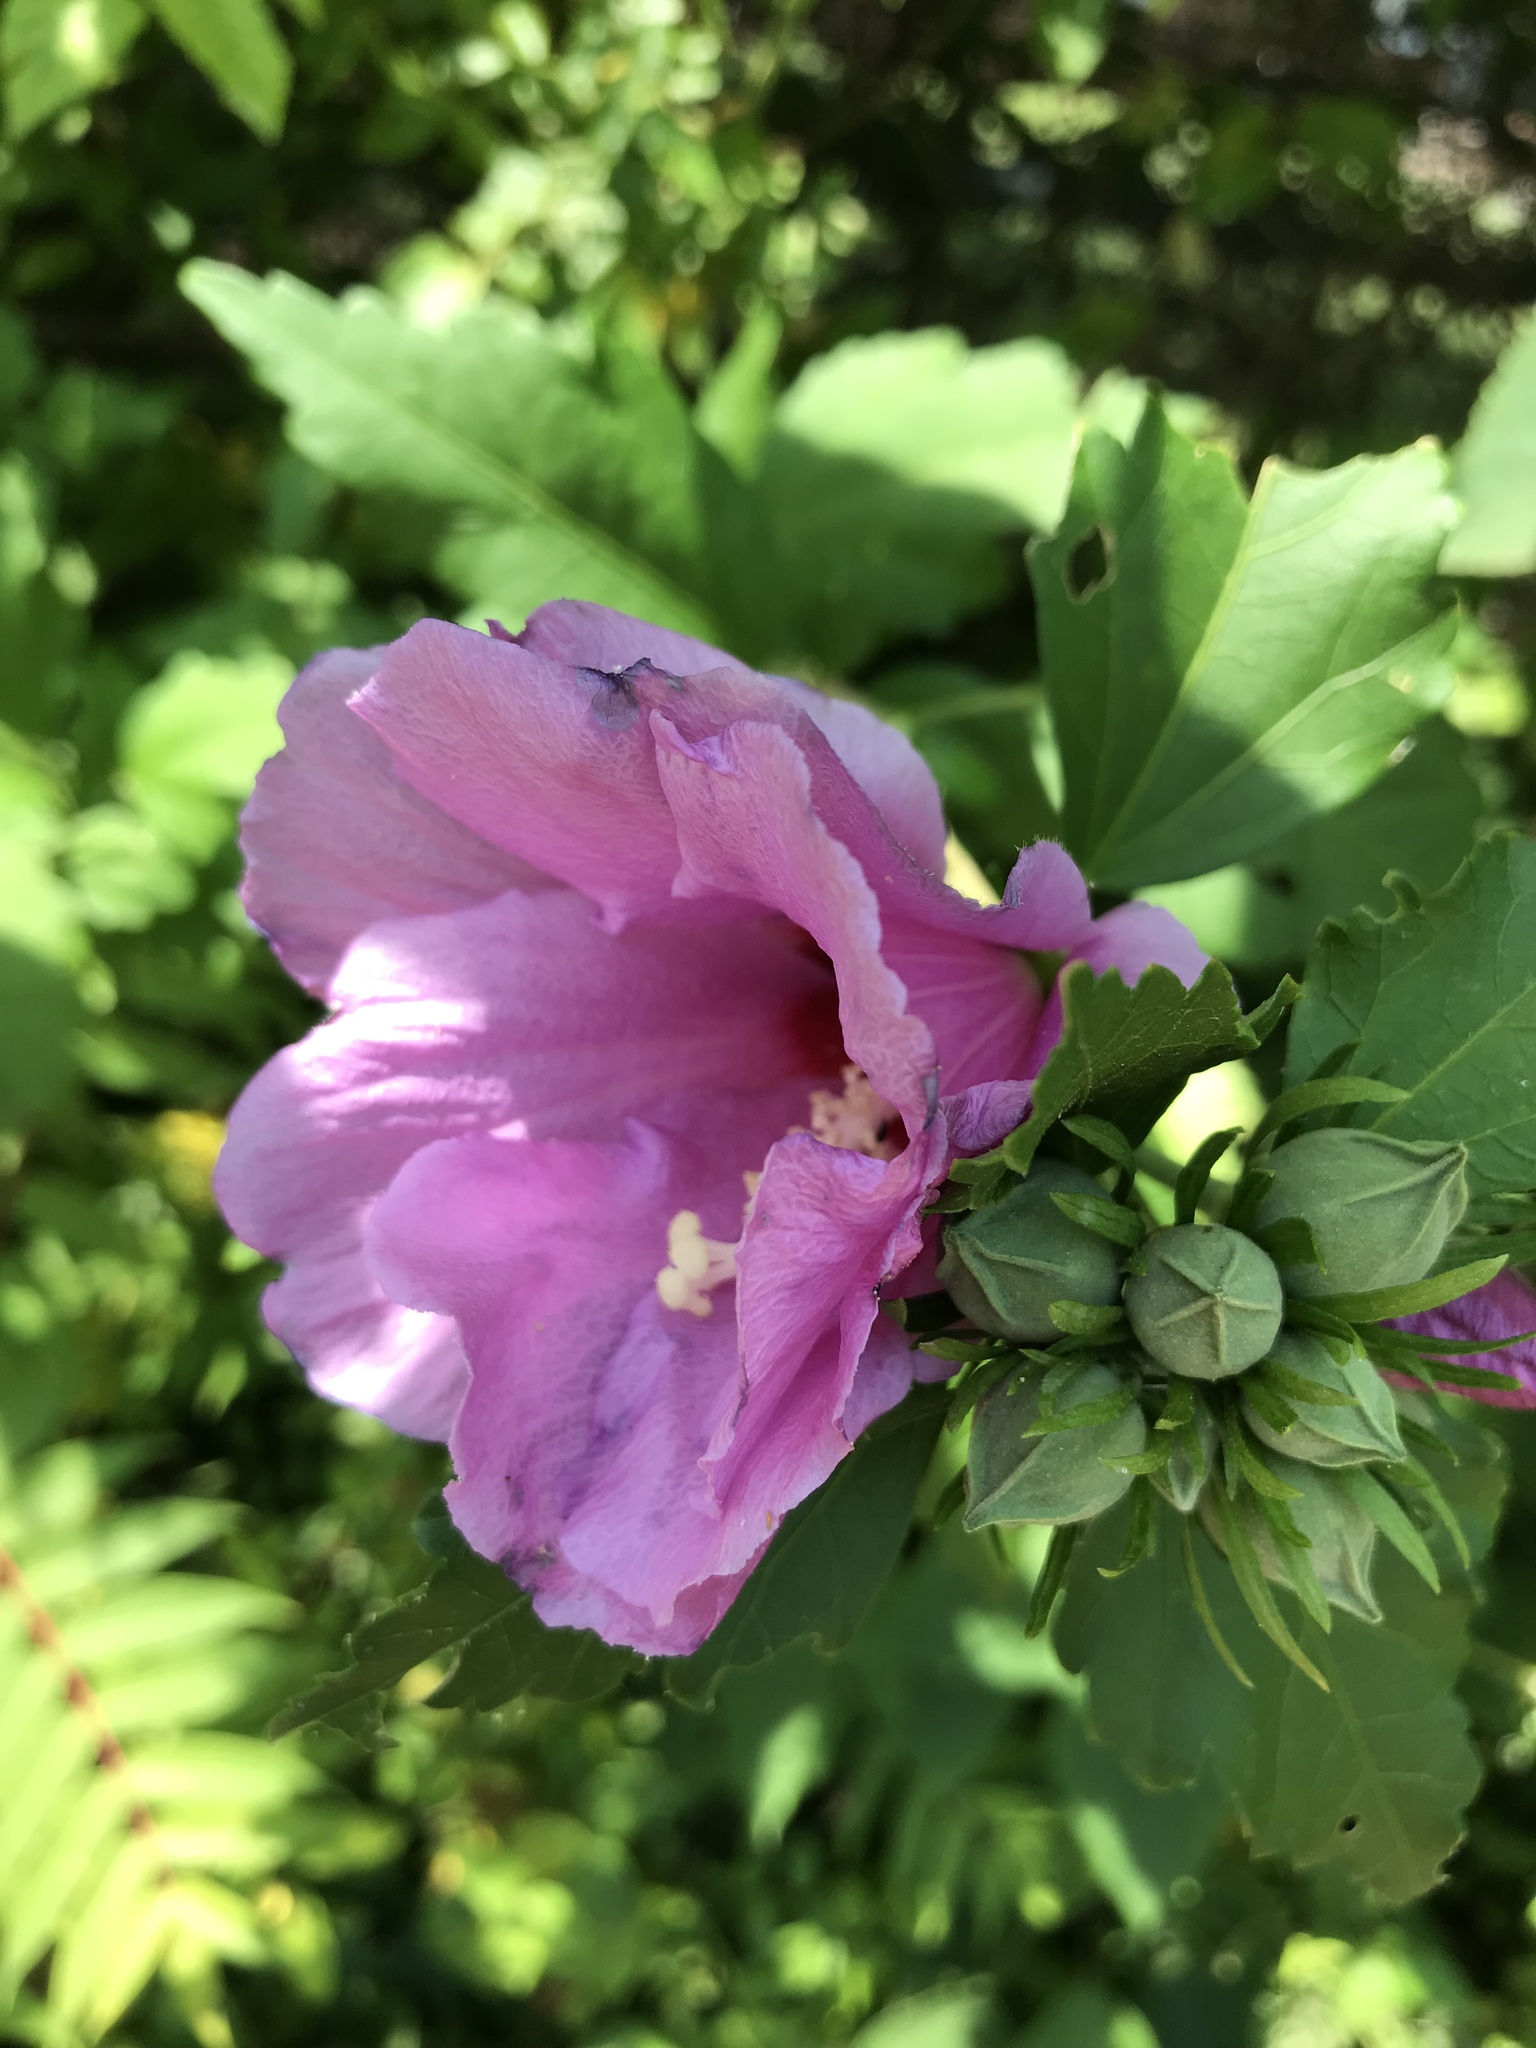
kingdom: Plantae
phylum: Tracheophyta
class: Magnoliopsida
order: Malvales
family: Malvaceae
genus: Hibiscus
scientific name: Hibiscus syriacus
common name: Syrian ketmia
